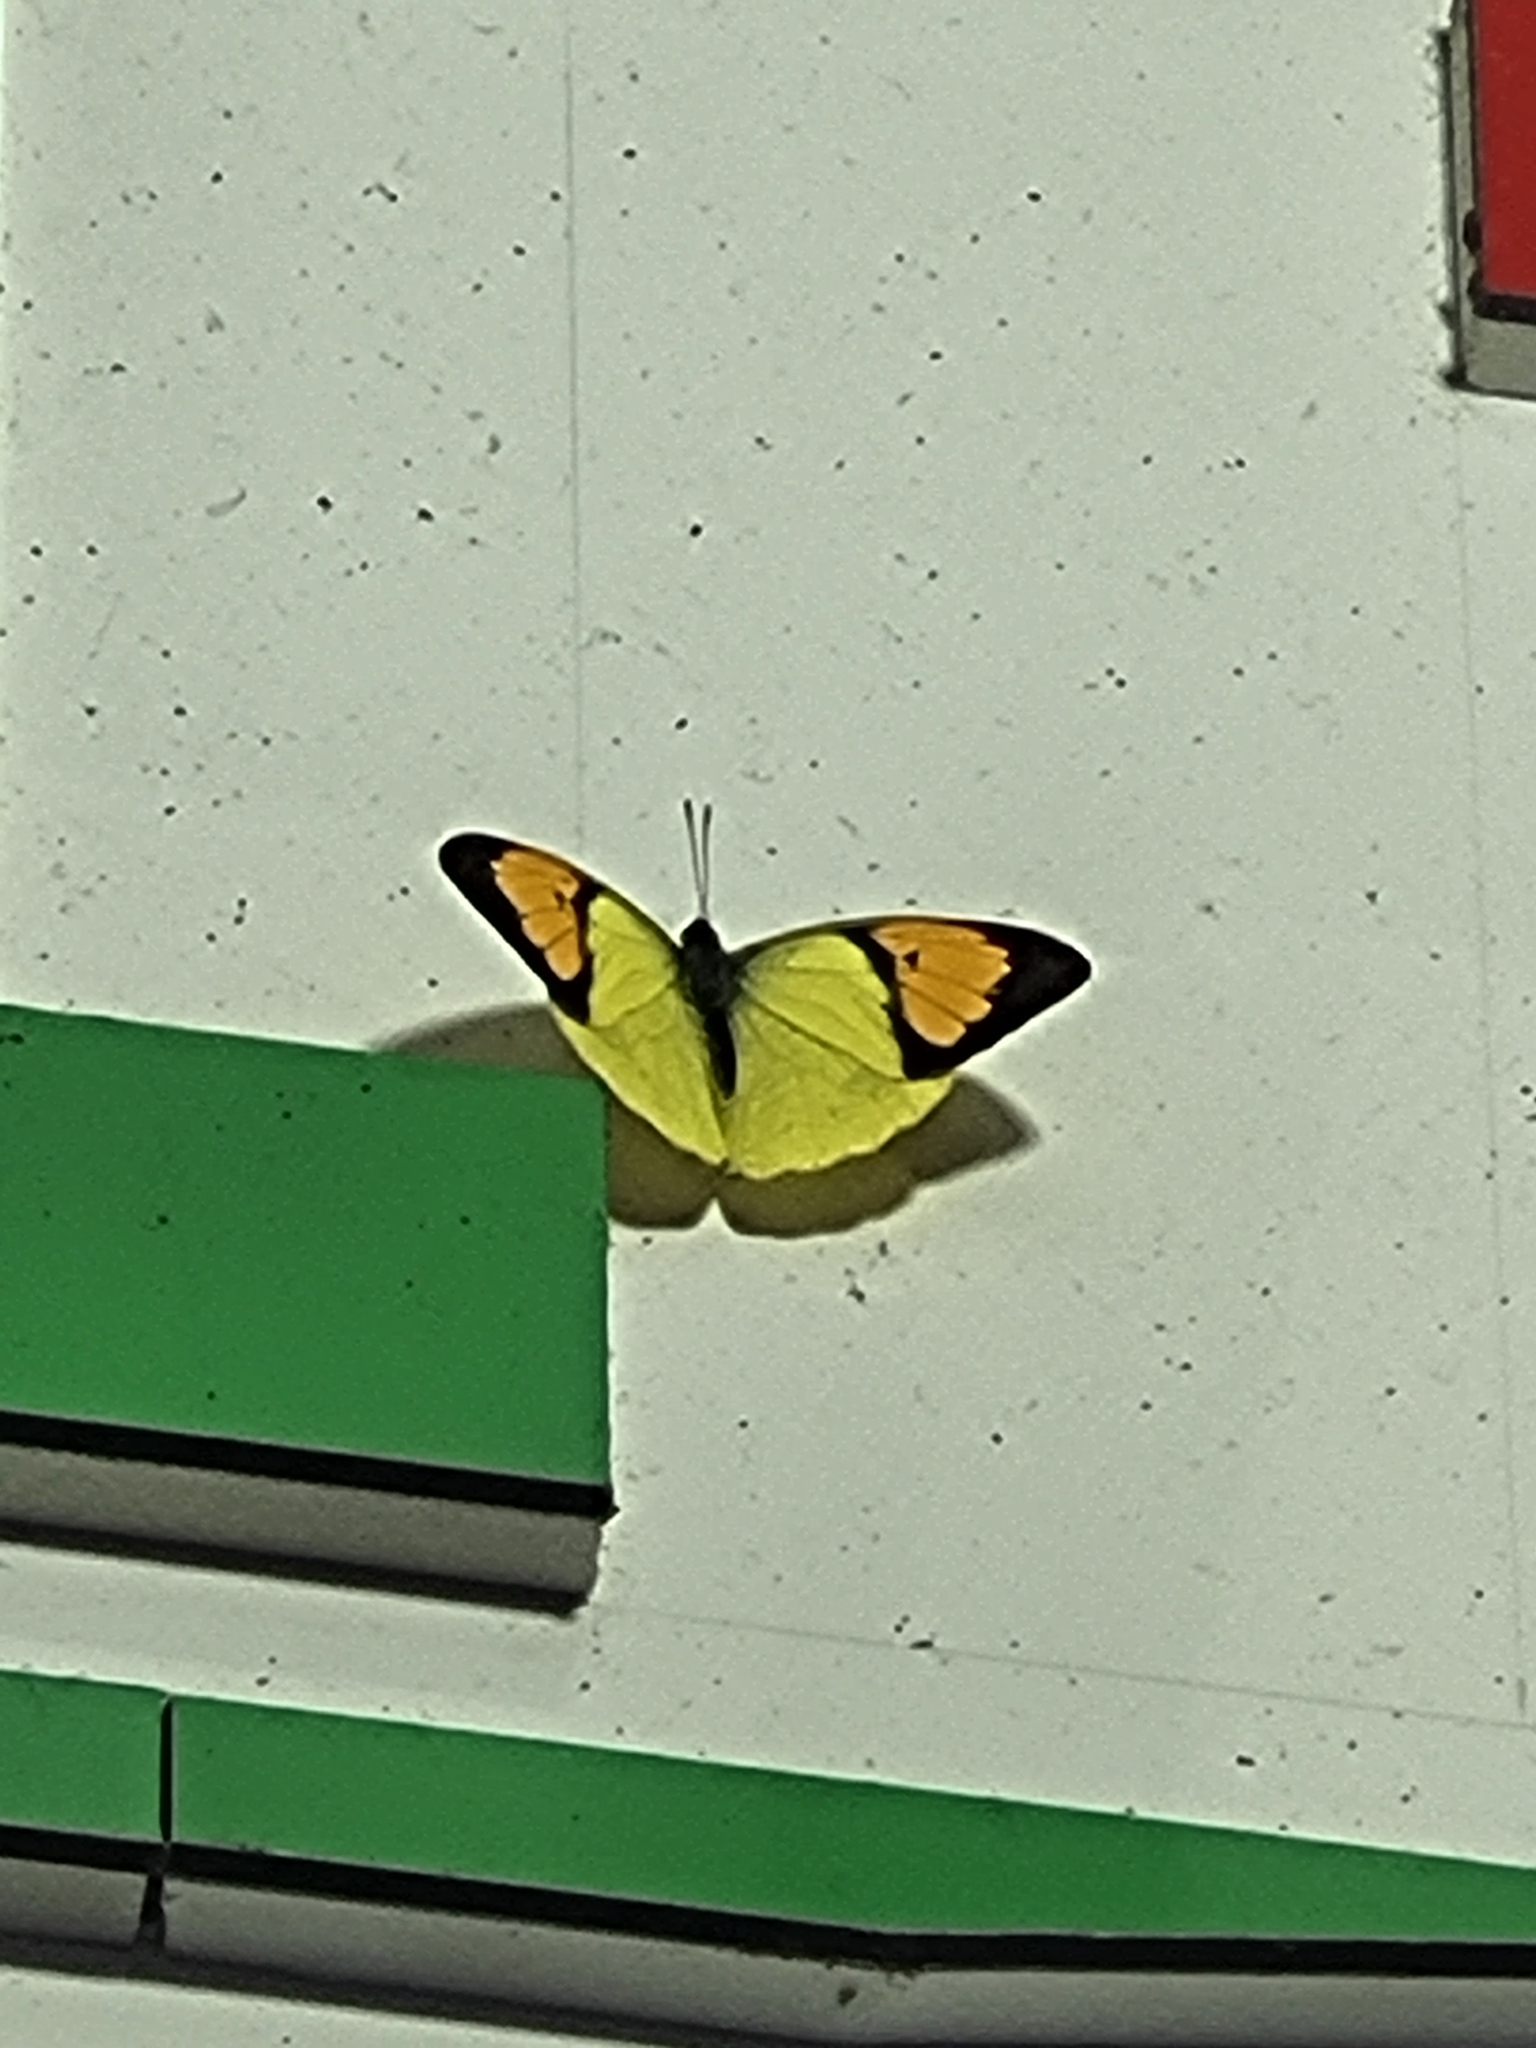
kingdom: Animalia
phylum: Arthropoda
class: Insecta
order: Lepidoptera
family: Pieridae
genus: Ixias
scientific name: Ixias pyrene
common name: Yellow orange tip
